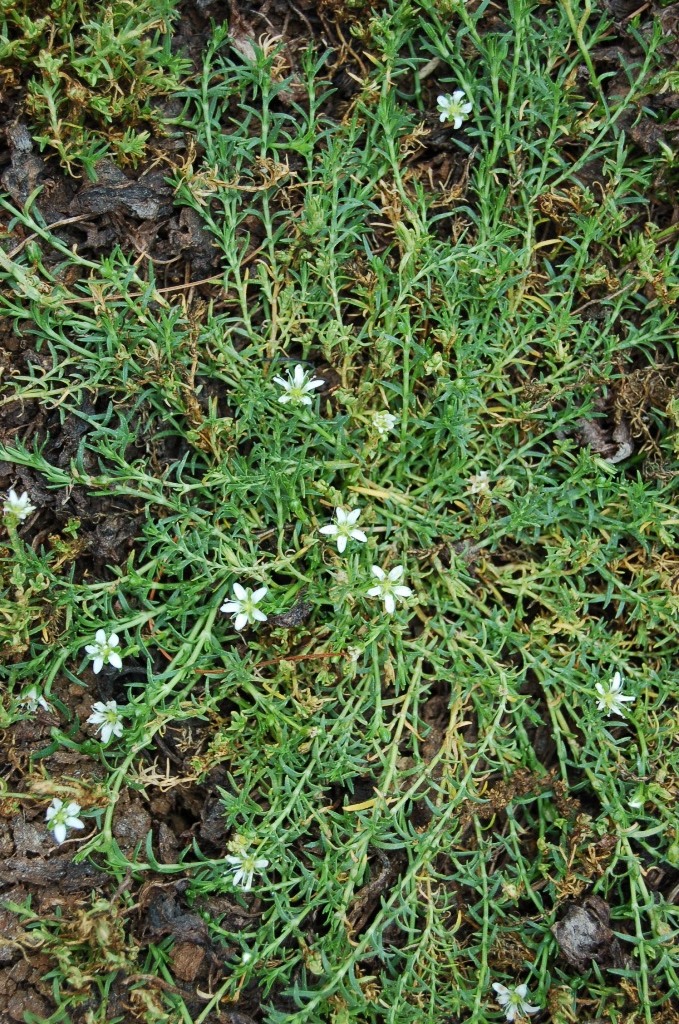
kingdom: Plantae
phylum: Tracheophyta
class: Magnoliopsida
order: Caryophyllales
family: Caryophyllaceae
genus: Arenaria
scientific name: Arenaria bourgaei
